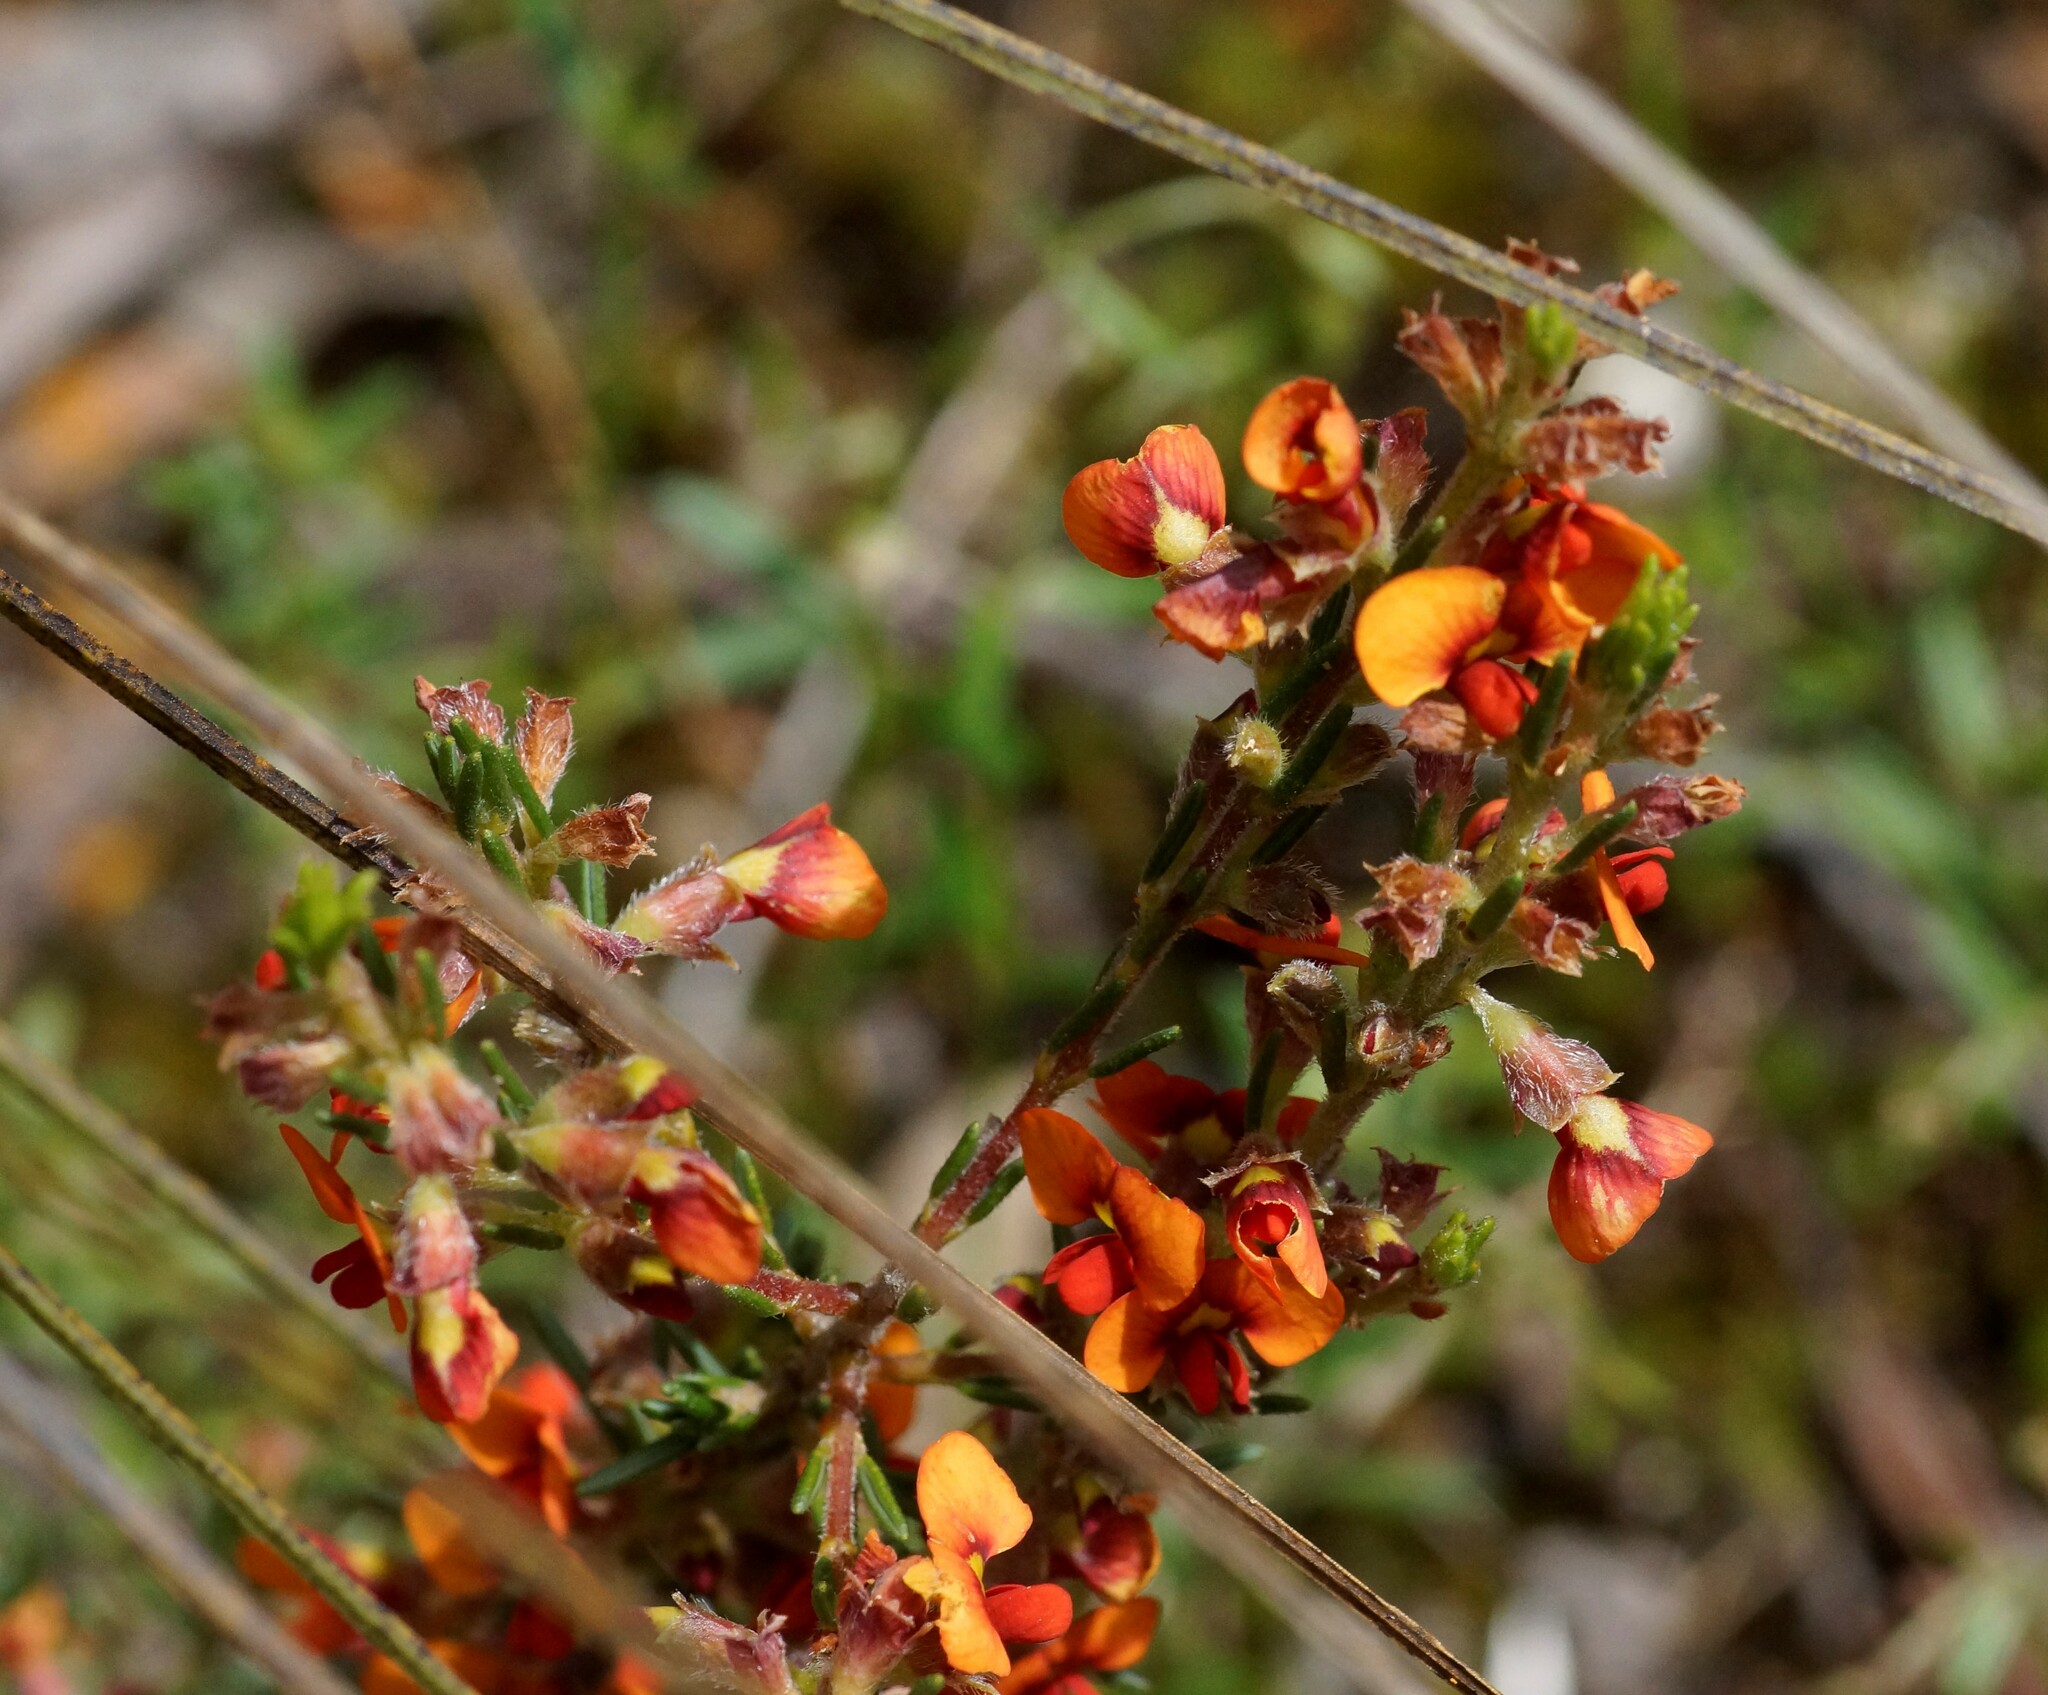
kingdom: Plantae
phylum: Tracheophyta
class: Magnoliopsida
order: Fabales
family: Fabaceae
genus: Dillwynia
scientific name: Dillwynia sericea
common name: Showy parrot-pea
